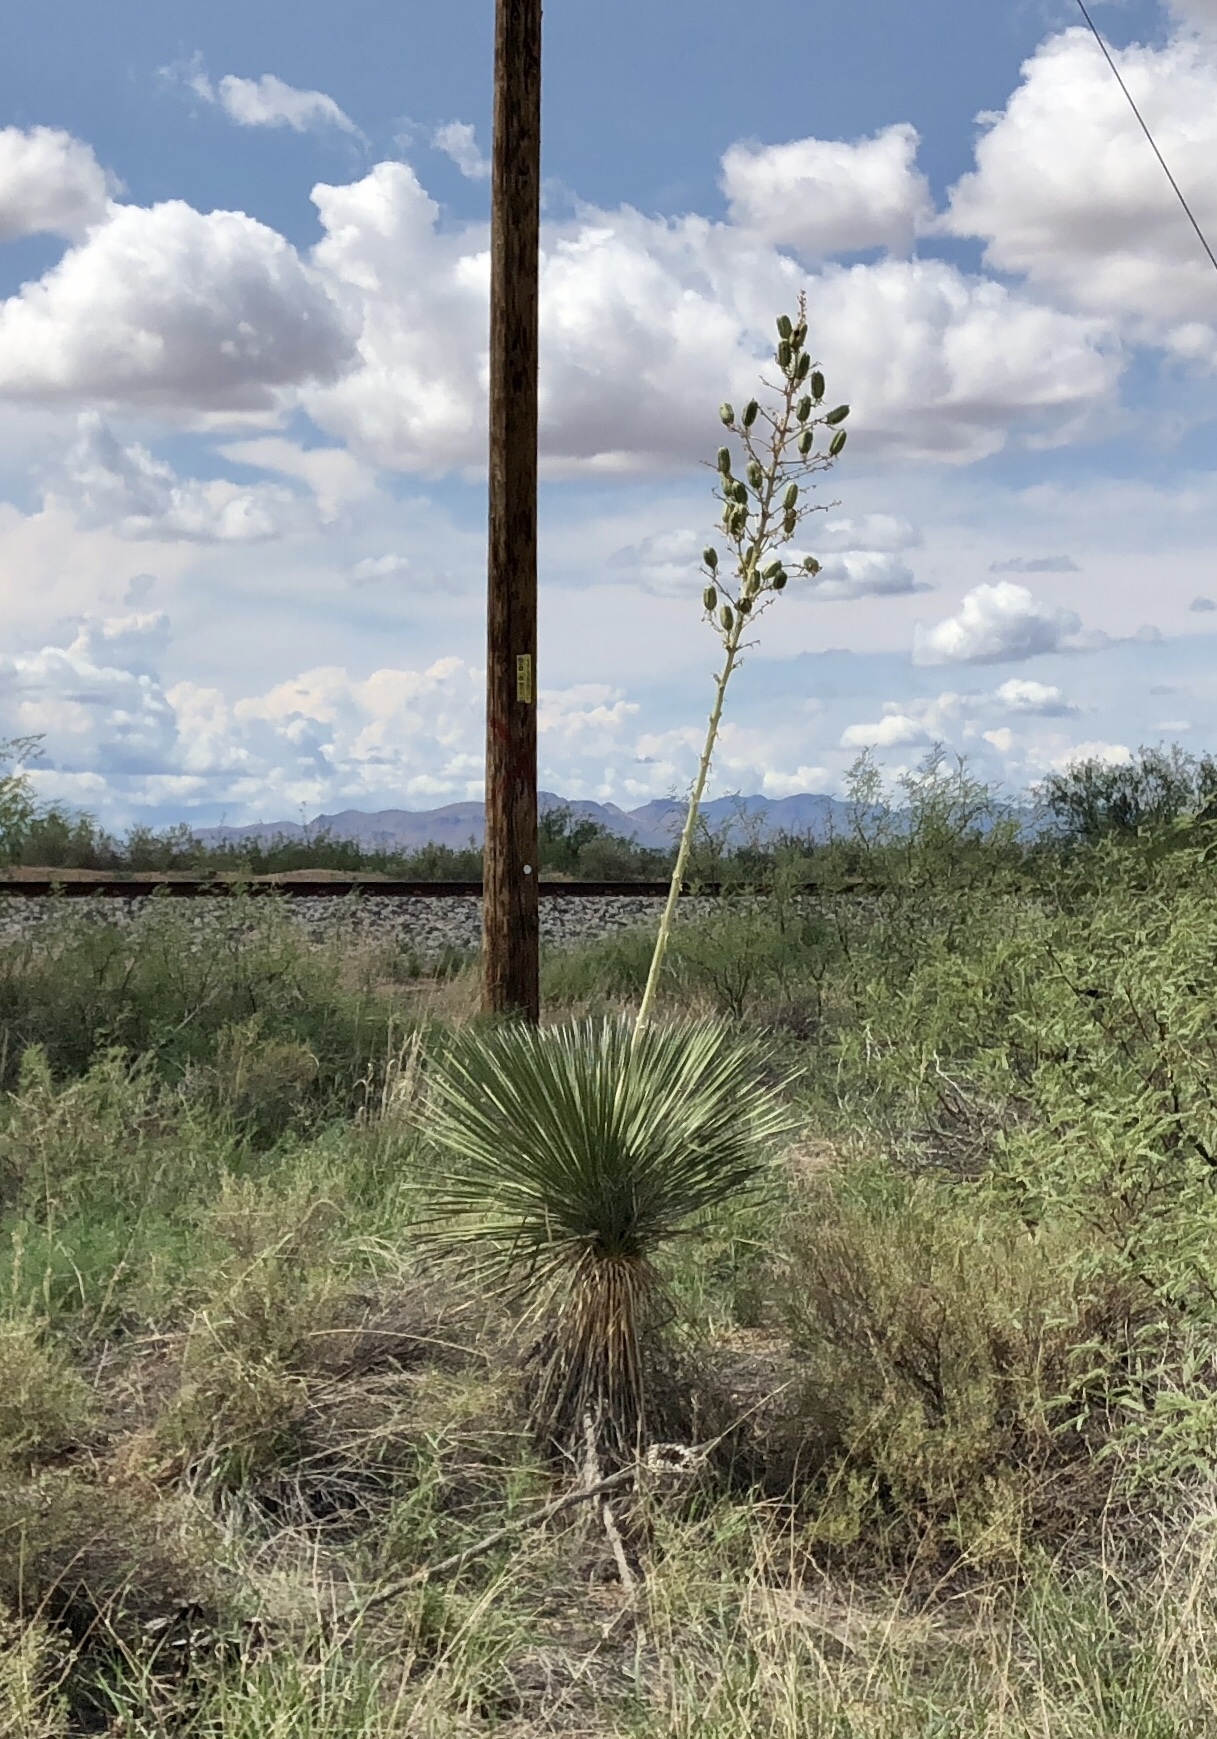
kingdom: Plantae
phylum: Tracheophyta
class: Liliopsida
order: Asparagales
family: Asparagaceae
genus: Yucca
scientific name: Yucca elata
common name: Palmella
